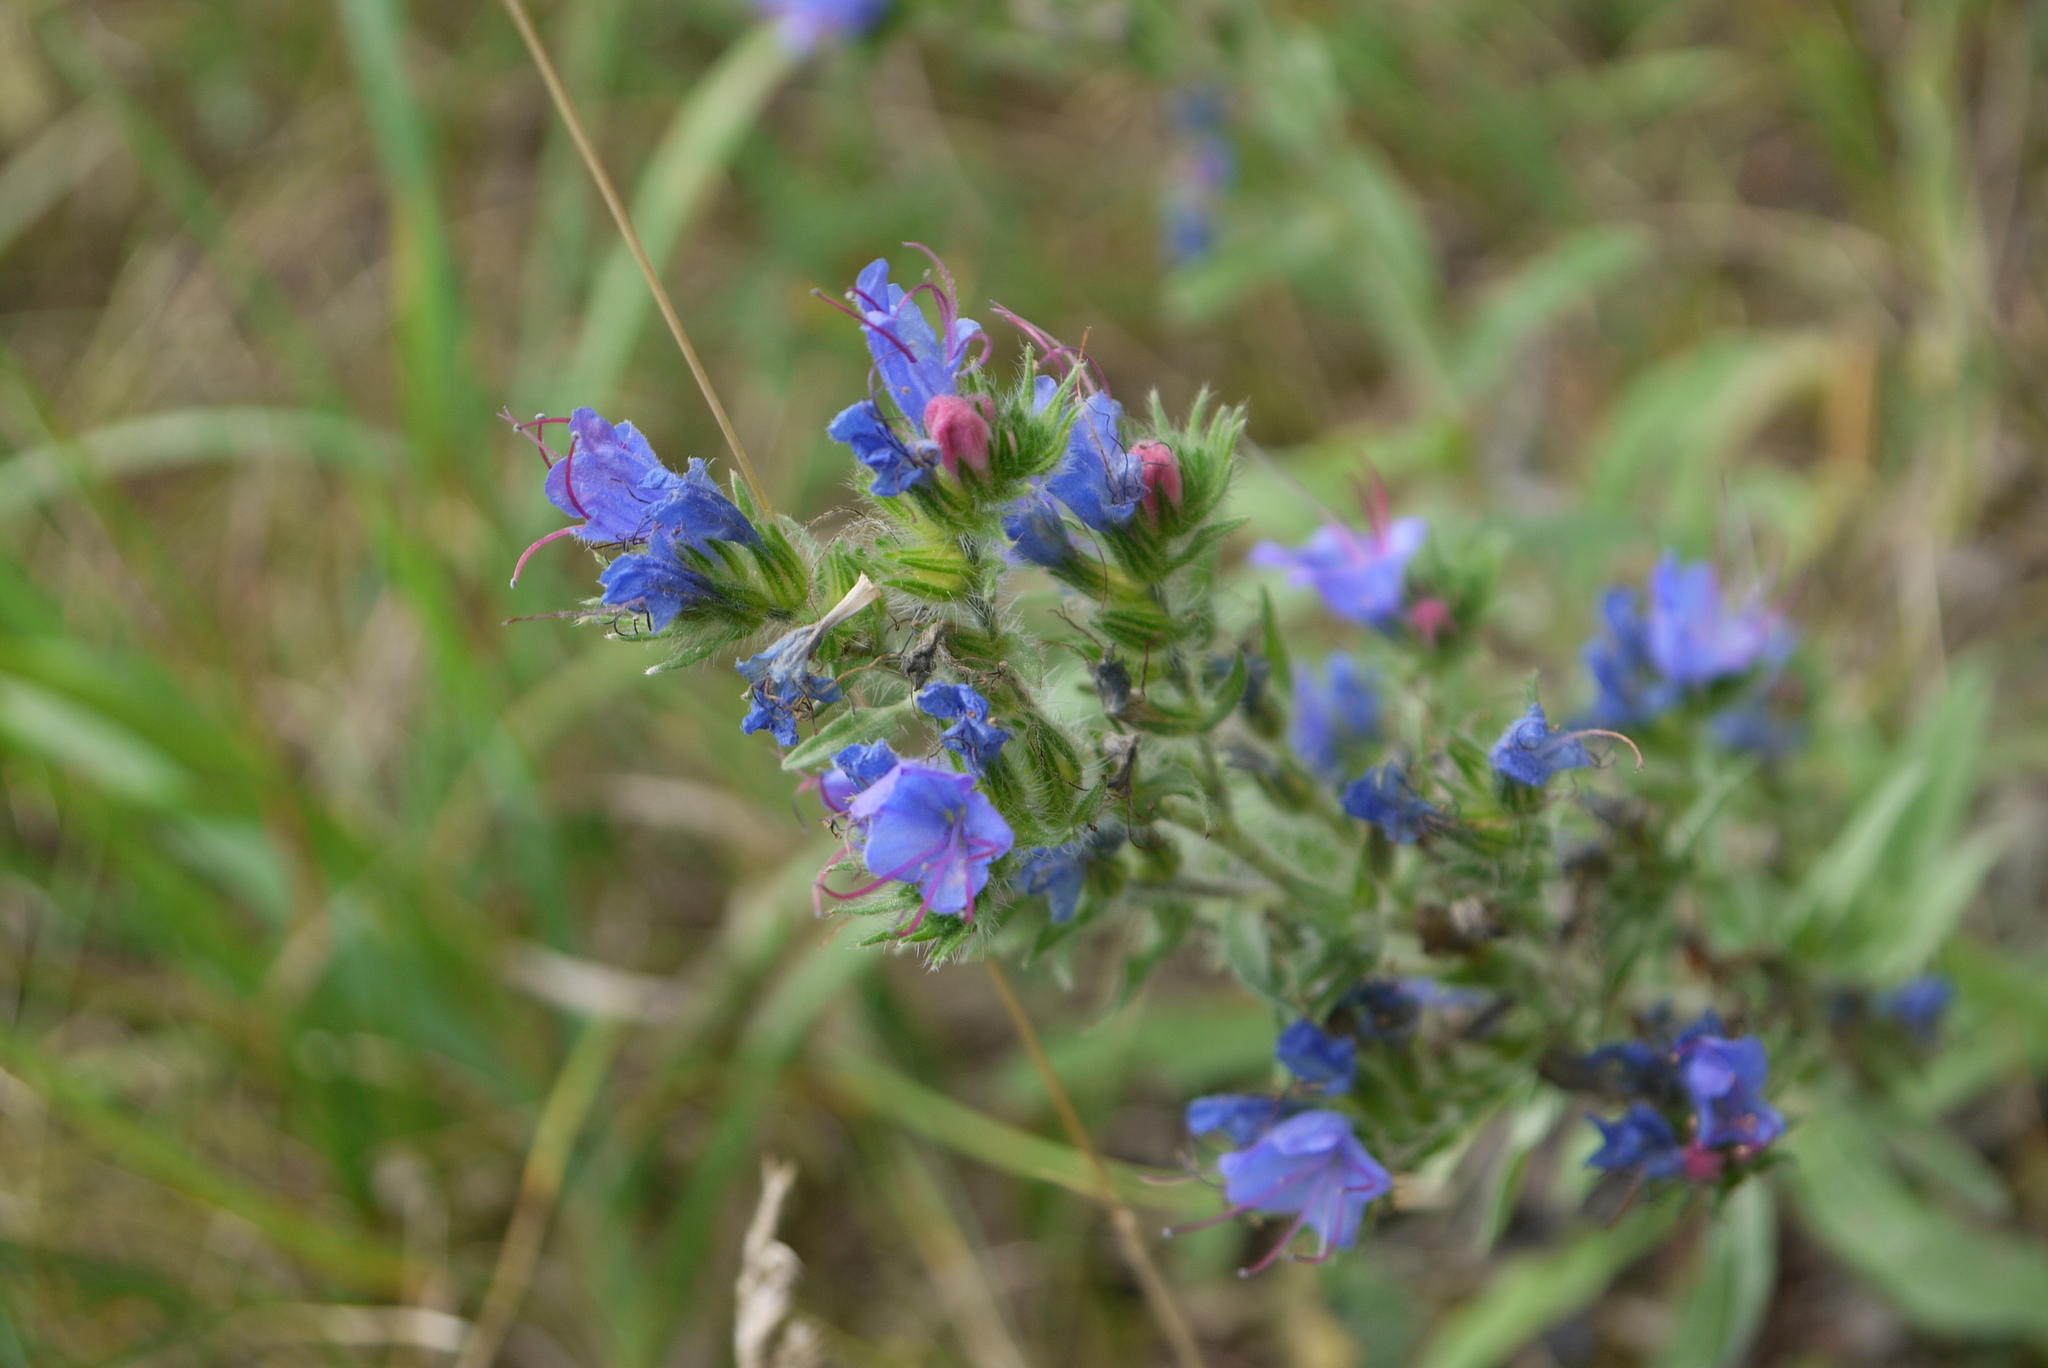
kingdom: Plantae
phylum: Tracheophyta
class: Magnoliopsida
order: Boraginales
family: Boraginaceae
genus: Echium
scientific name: Echium vulgare
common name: Common viper's bugloss
